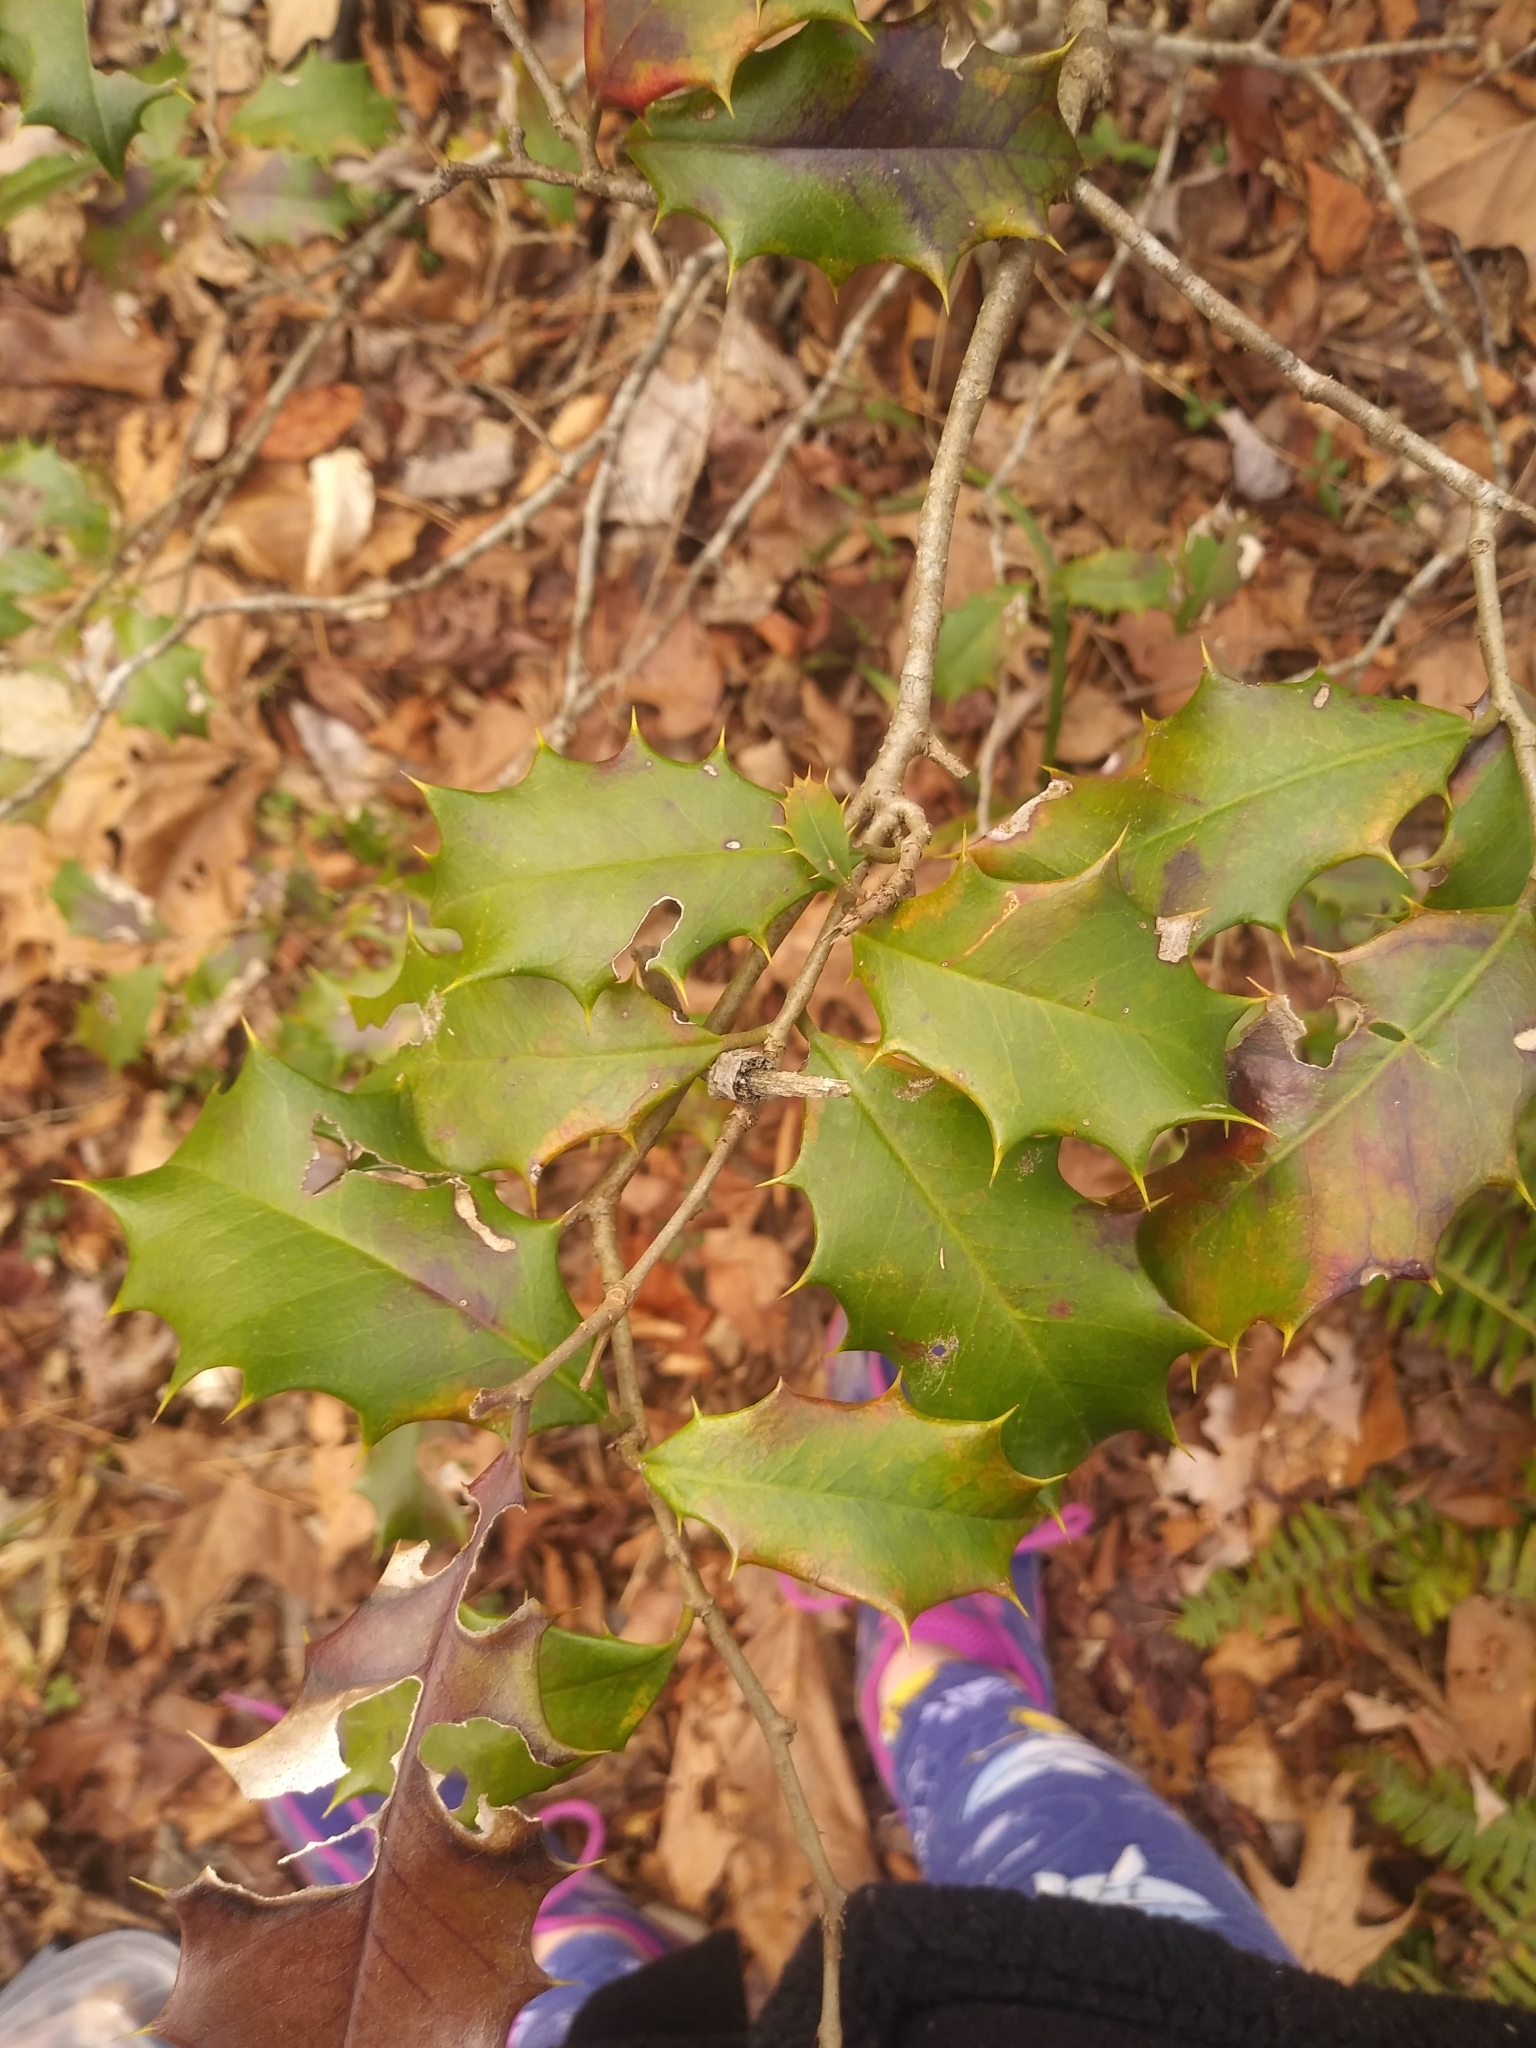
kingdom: Plantae
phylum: Tracheophyta
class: Magnoliopsida
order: Aquifoliales
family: Aquifoliaceae
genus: Ilex
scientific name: Ilex opaca
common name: American holly
